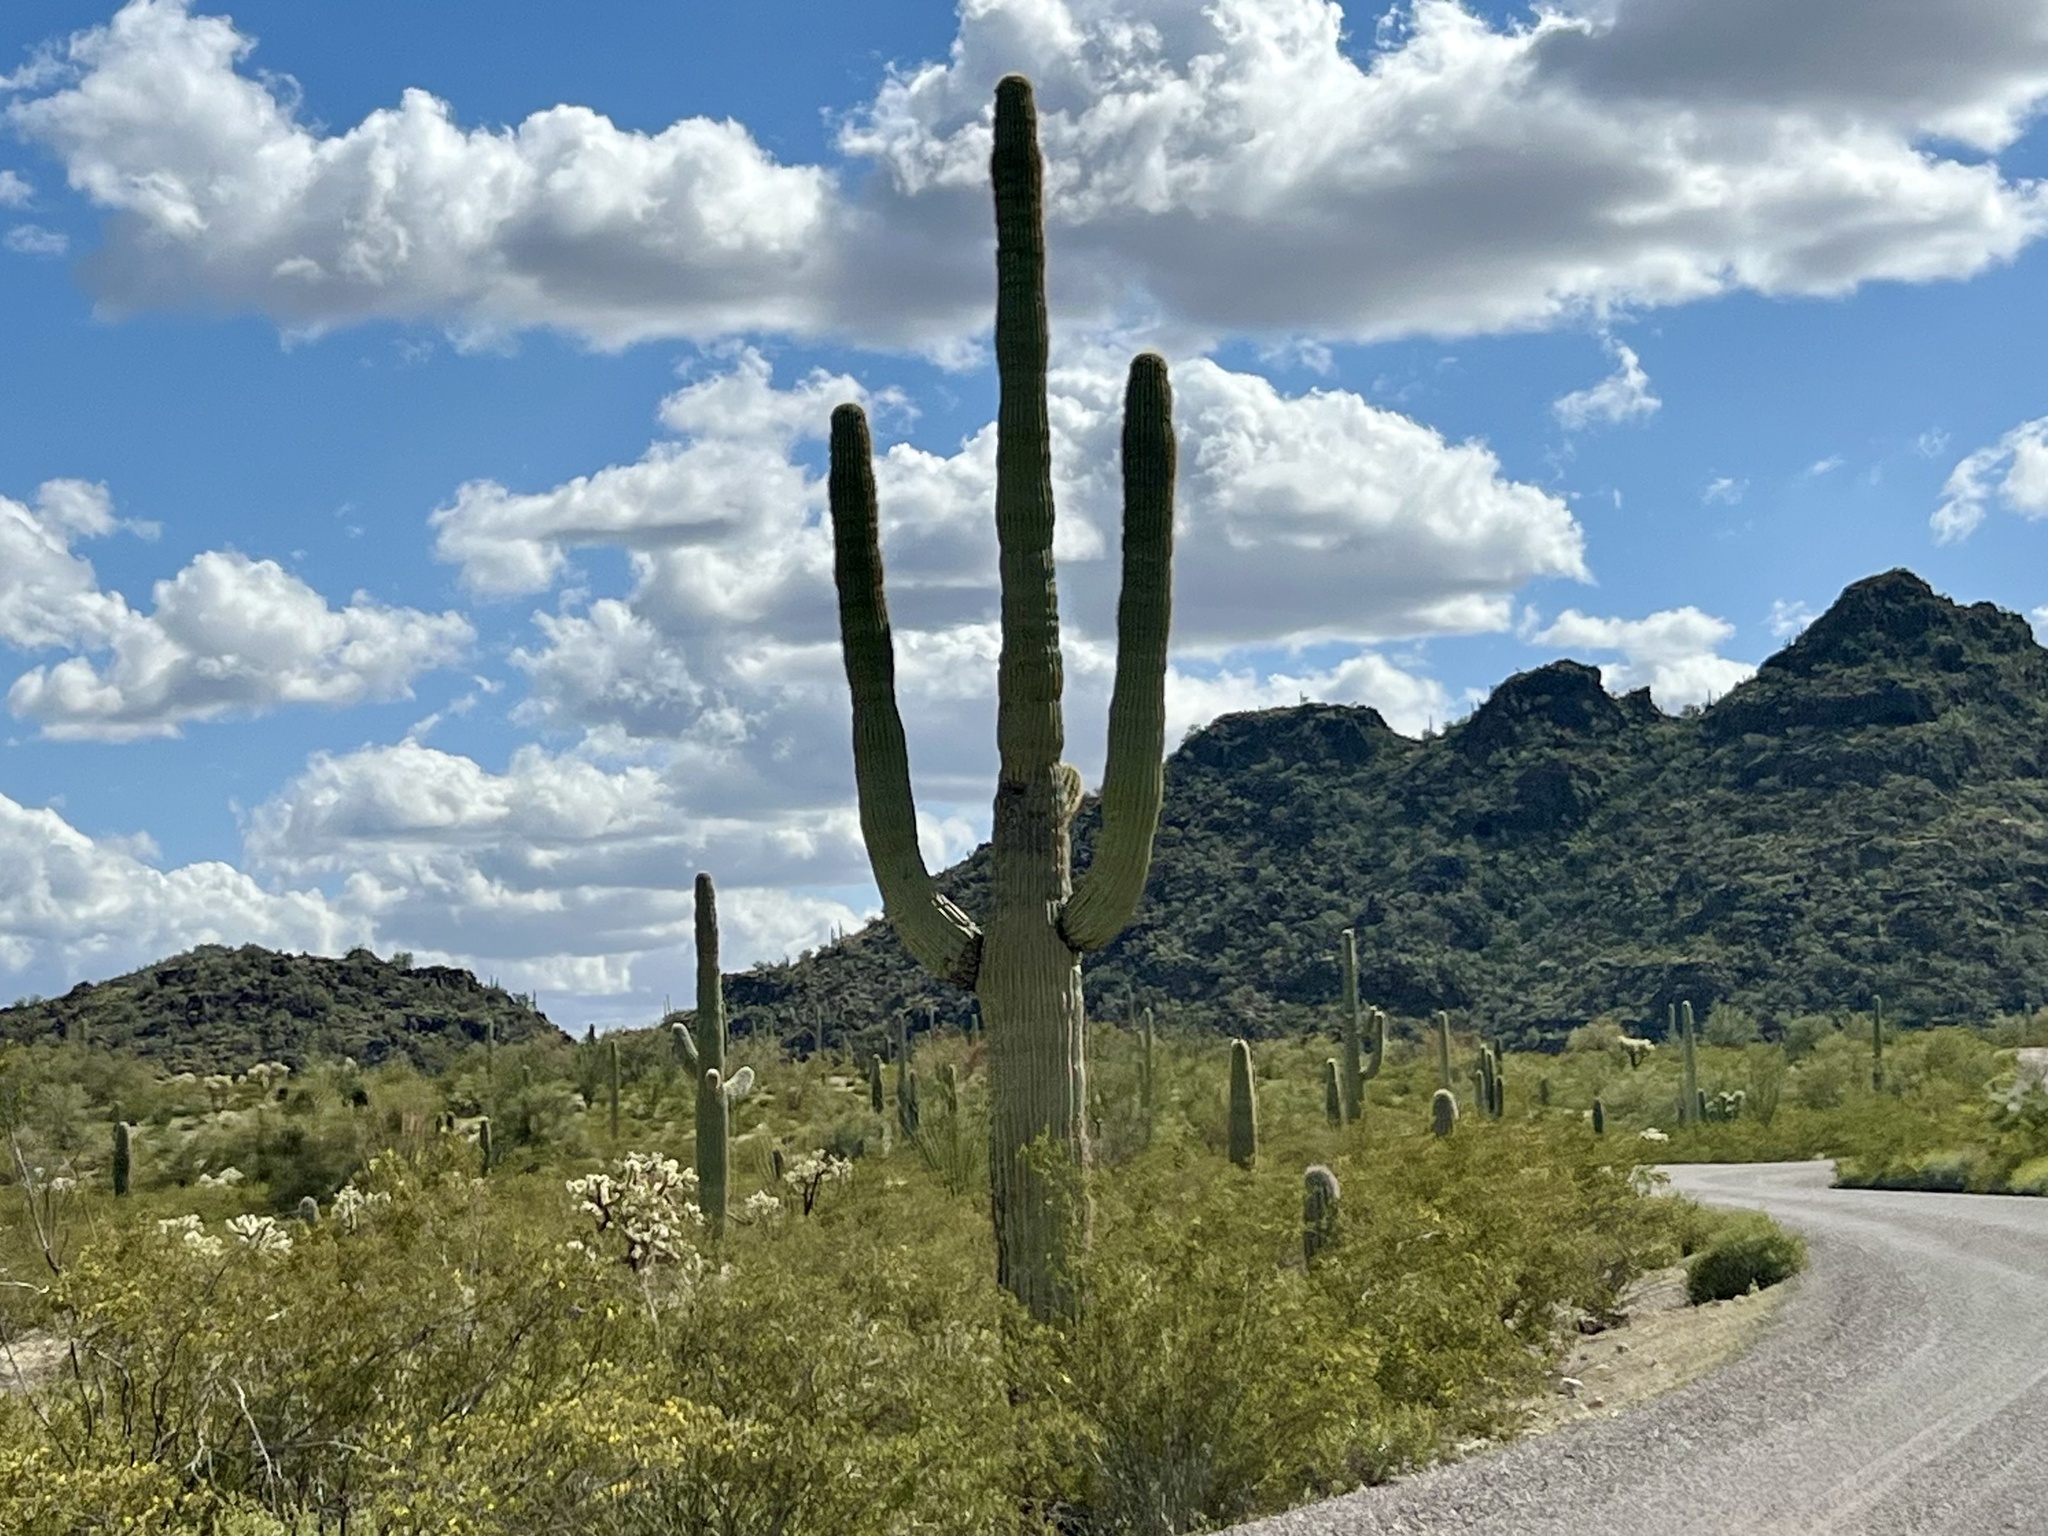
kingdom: Plantae
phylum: Tracheophyta
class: Magnoliopsida
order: Caryophyllales
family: Cactaceae
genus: Carnegiea
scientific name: Carnegiea gigantea
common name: Saguaro
